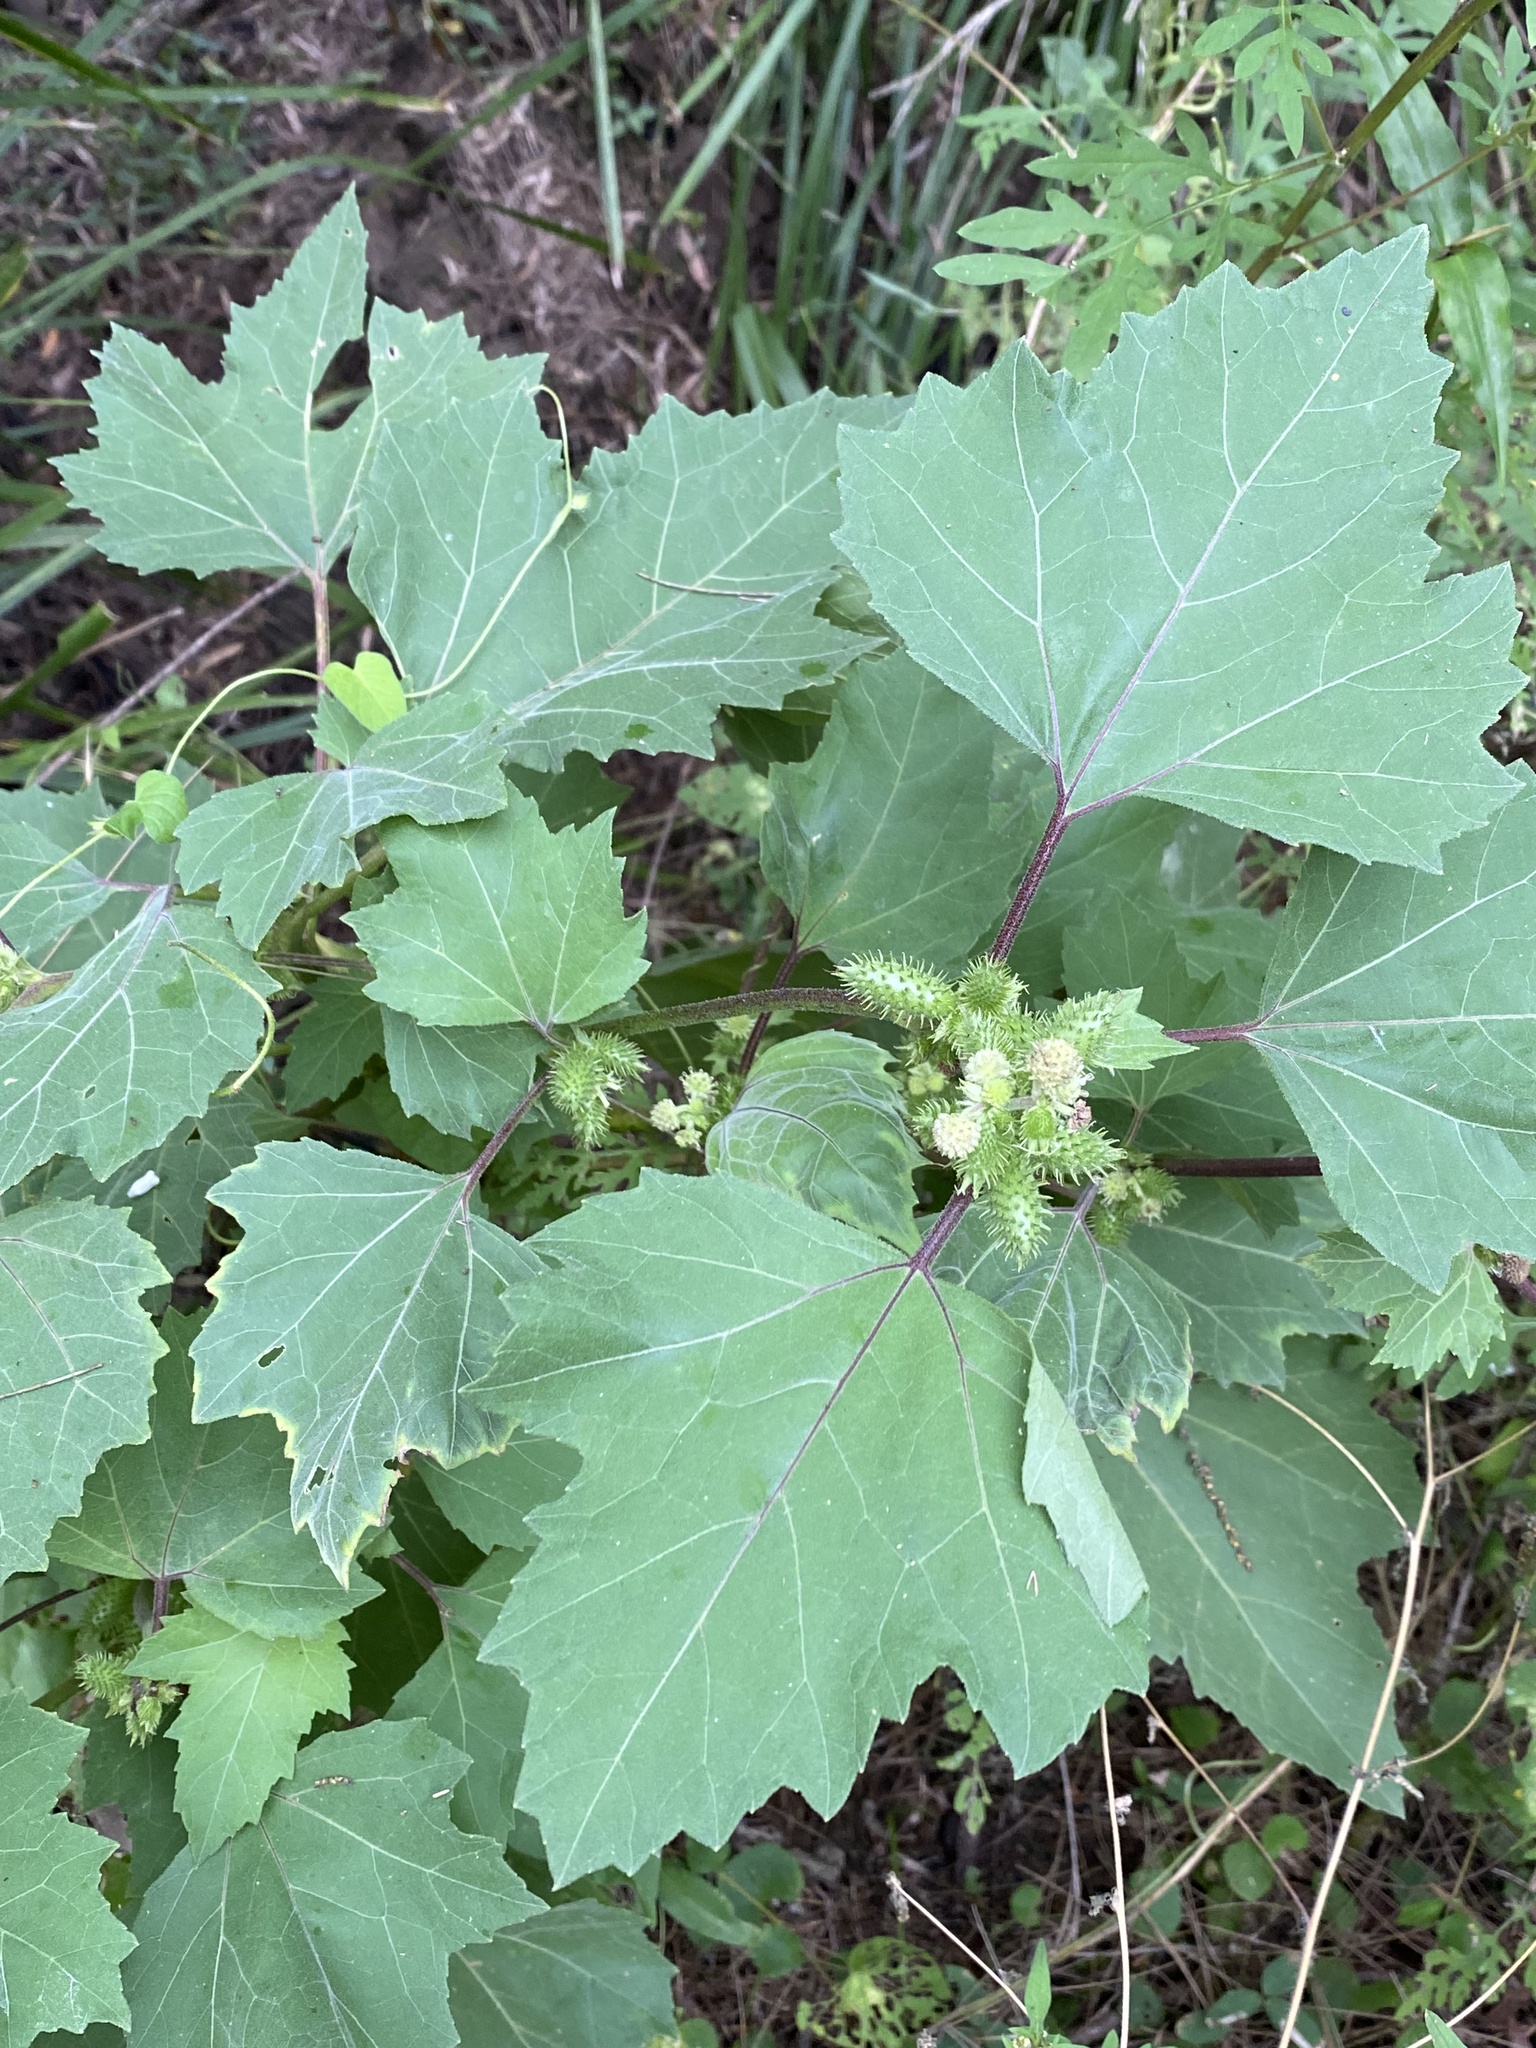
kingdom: Plantae
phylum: Tracheophyta
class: Magnoliopsida
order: Asterales
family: Asteraceae
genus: Xanthium
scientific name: Xanthium strumarium
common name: Rough cocklebur
